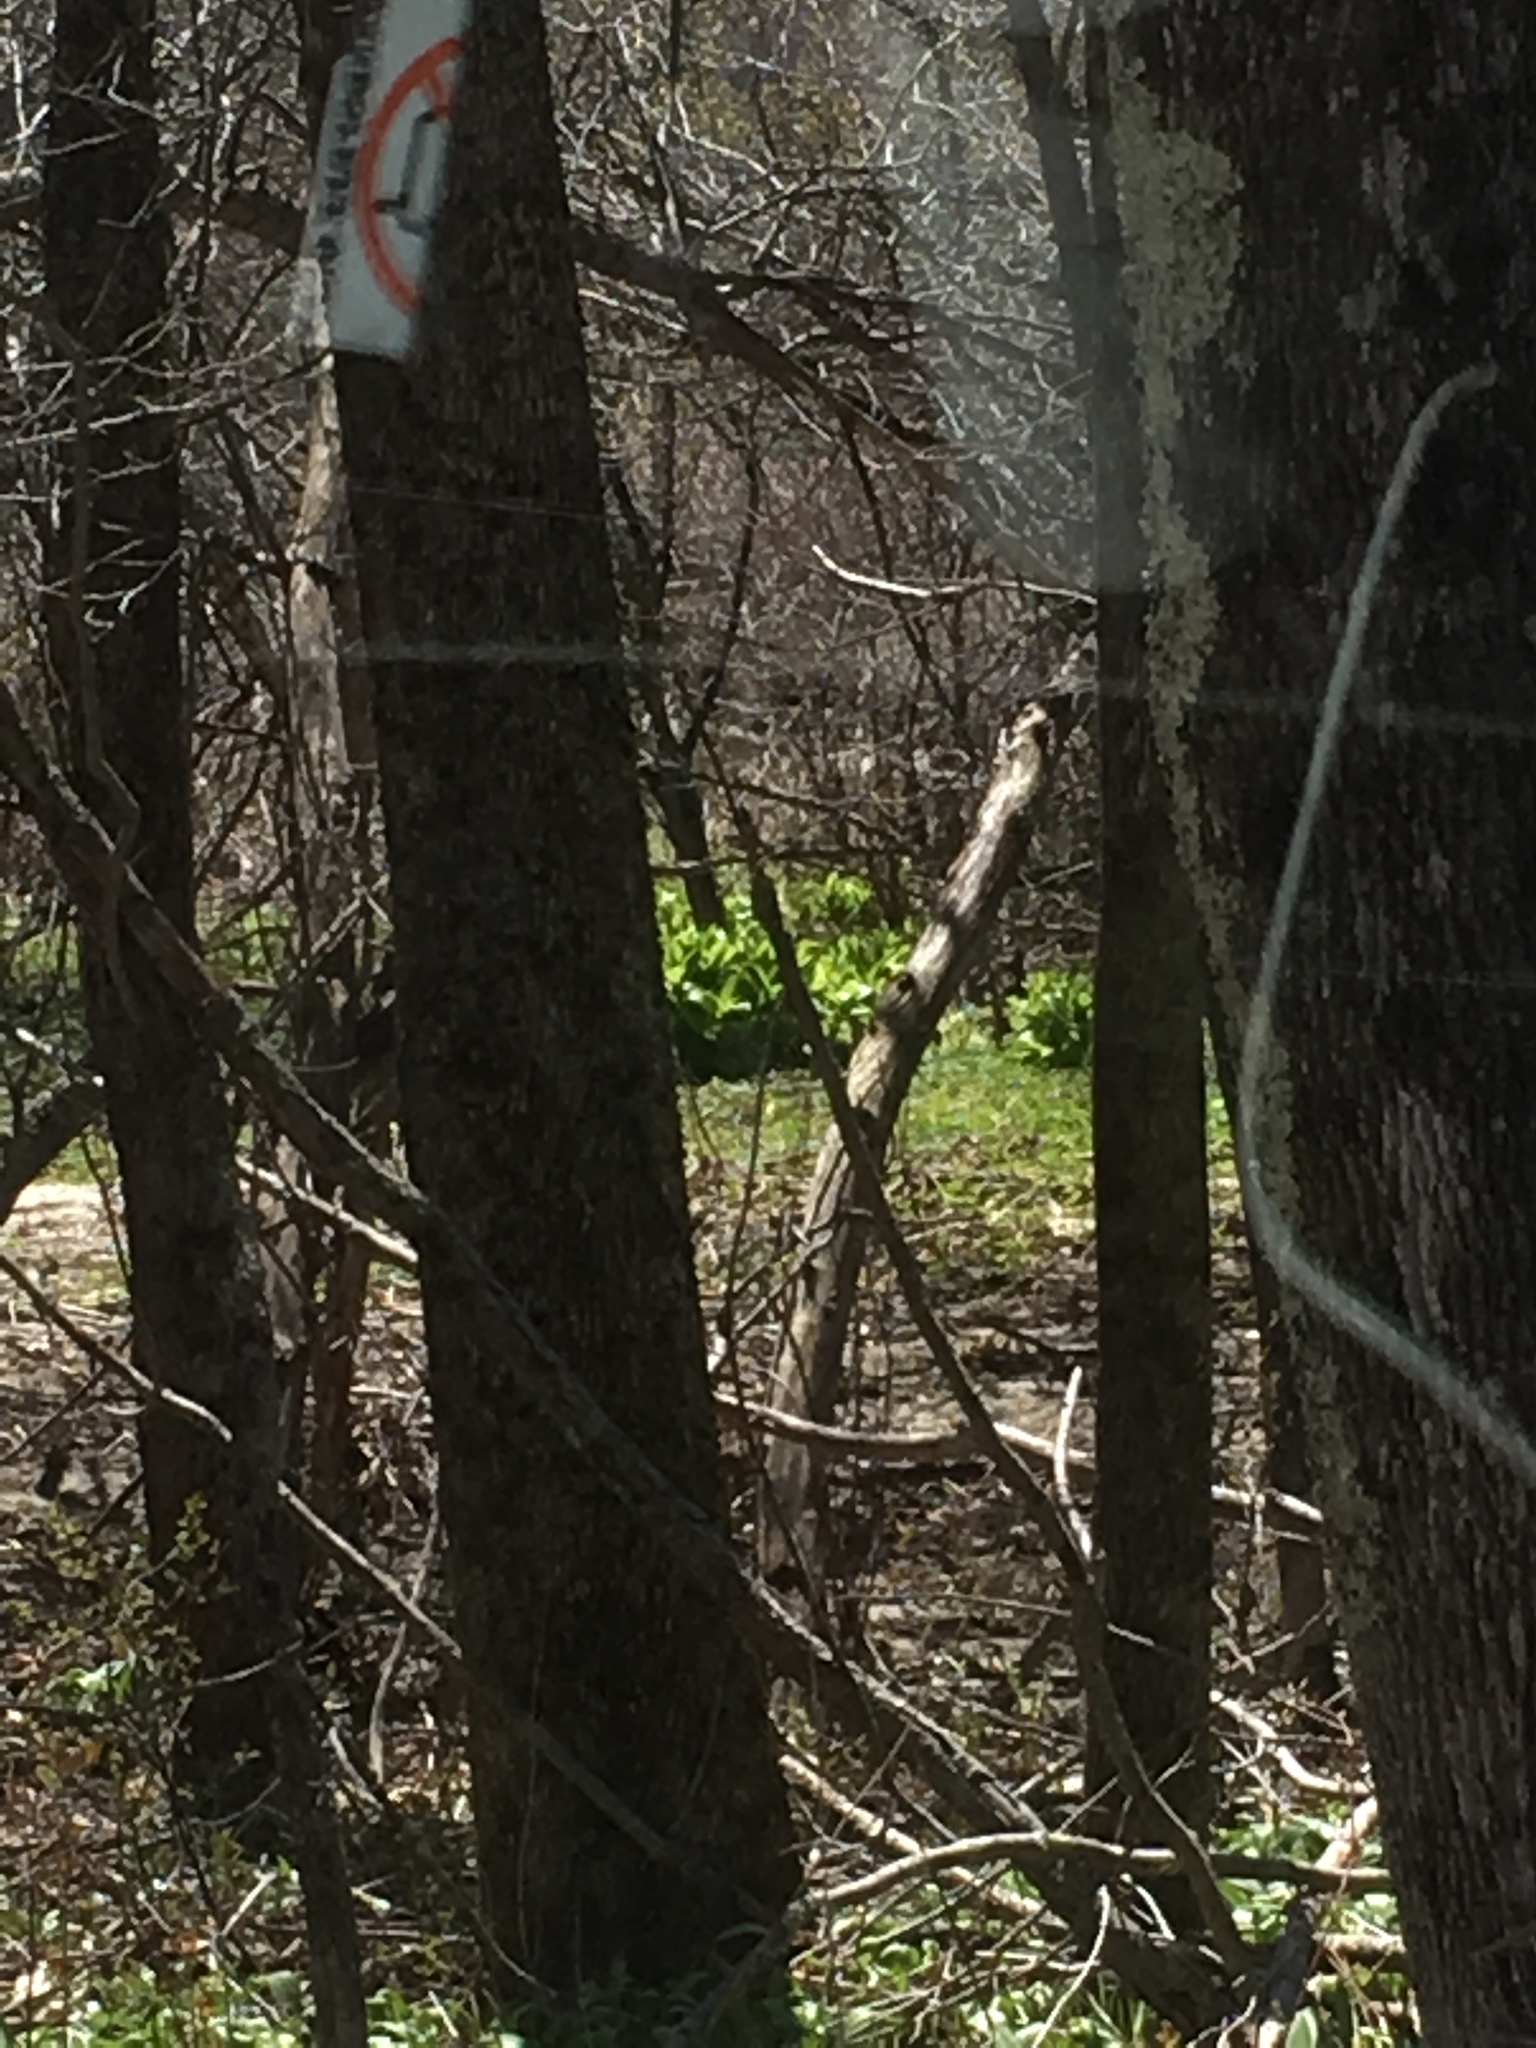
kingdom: Plantae
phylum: Tracheophyta
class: Liliopsida
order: Liliales
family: Melanthiaceae
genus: Veratrum
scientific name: Veratrum viride
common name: American false hellebore
